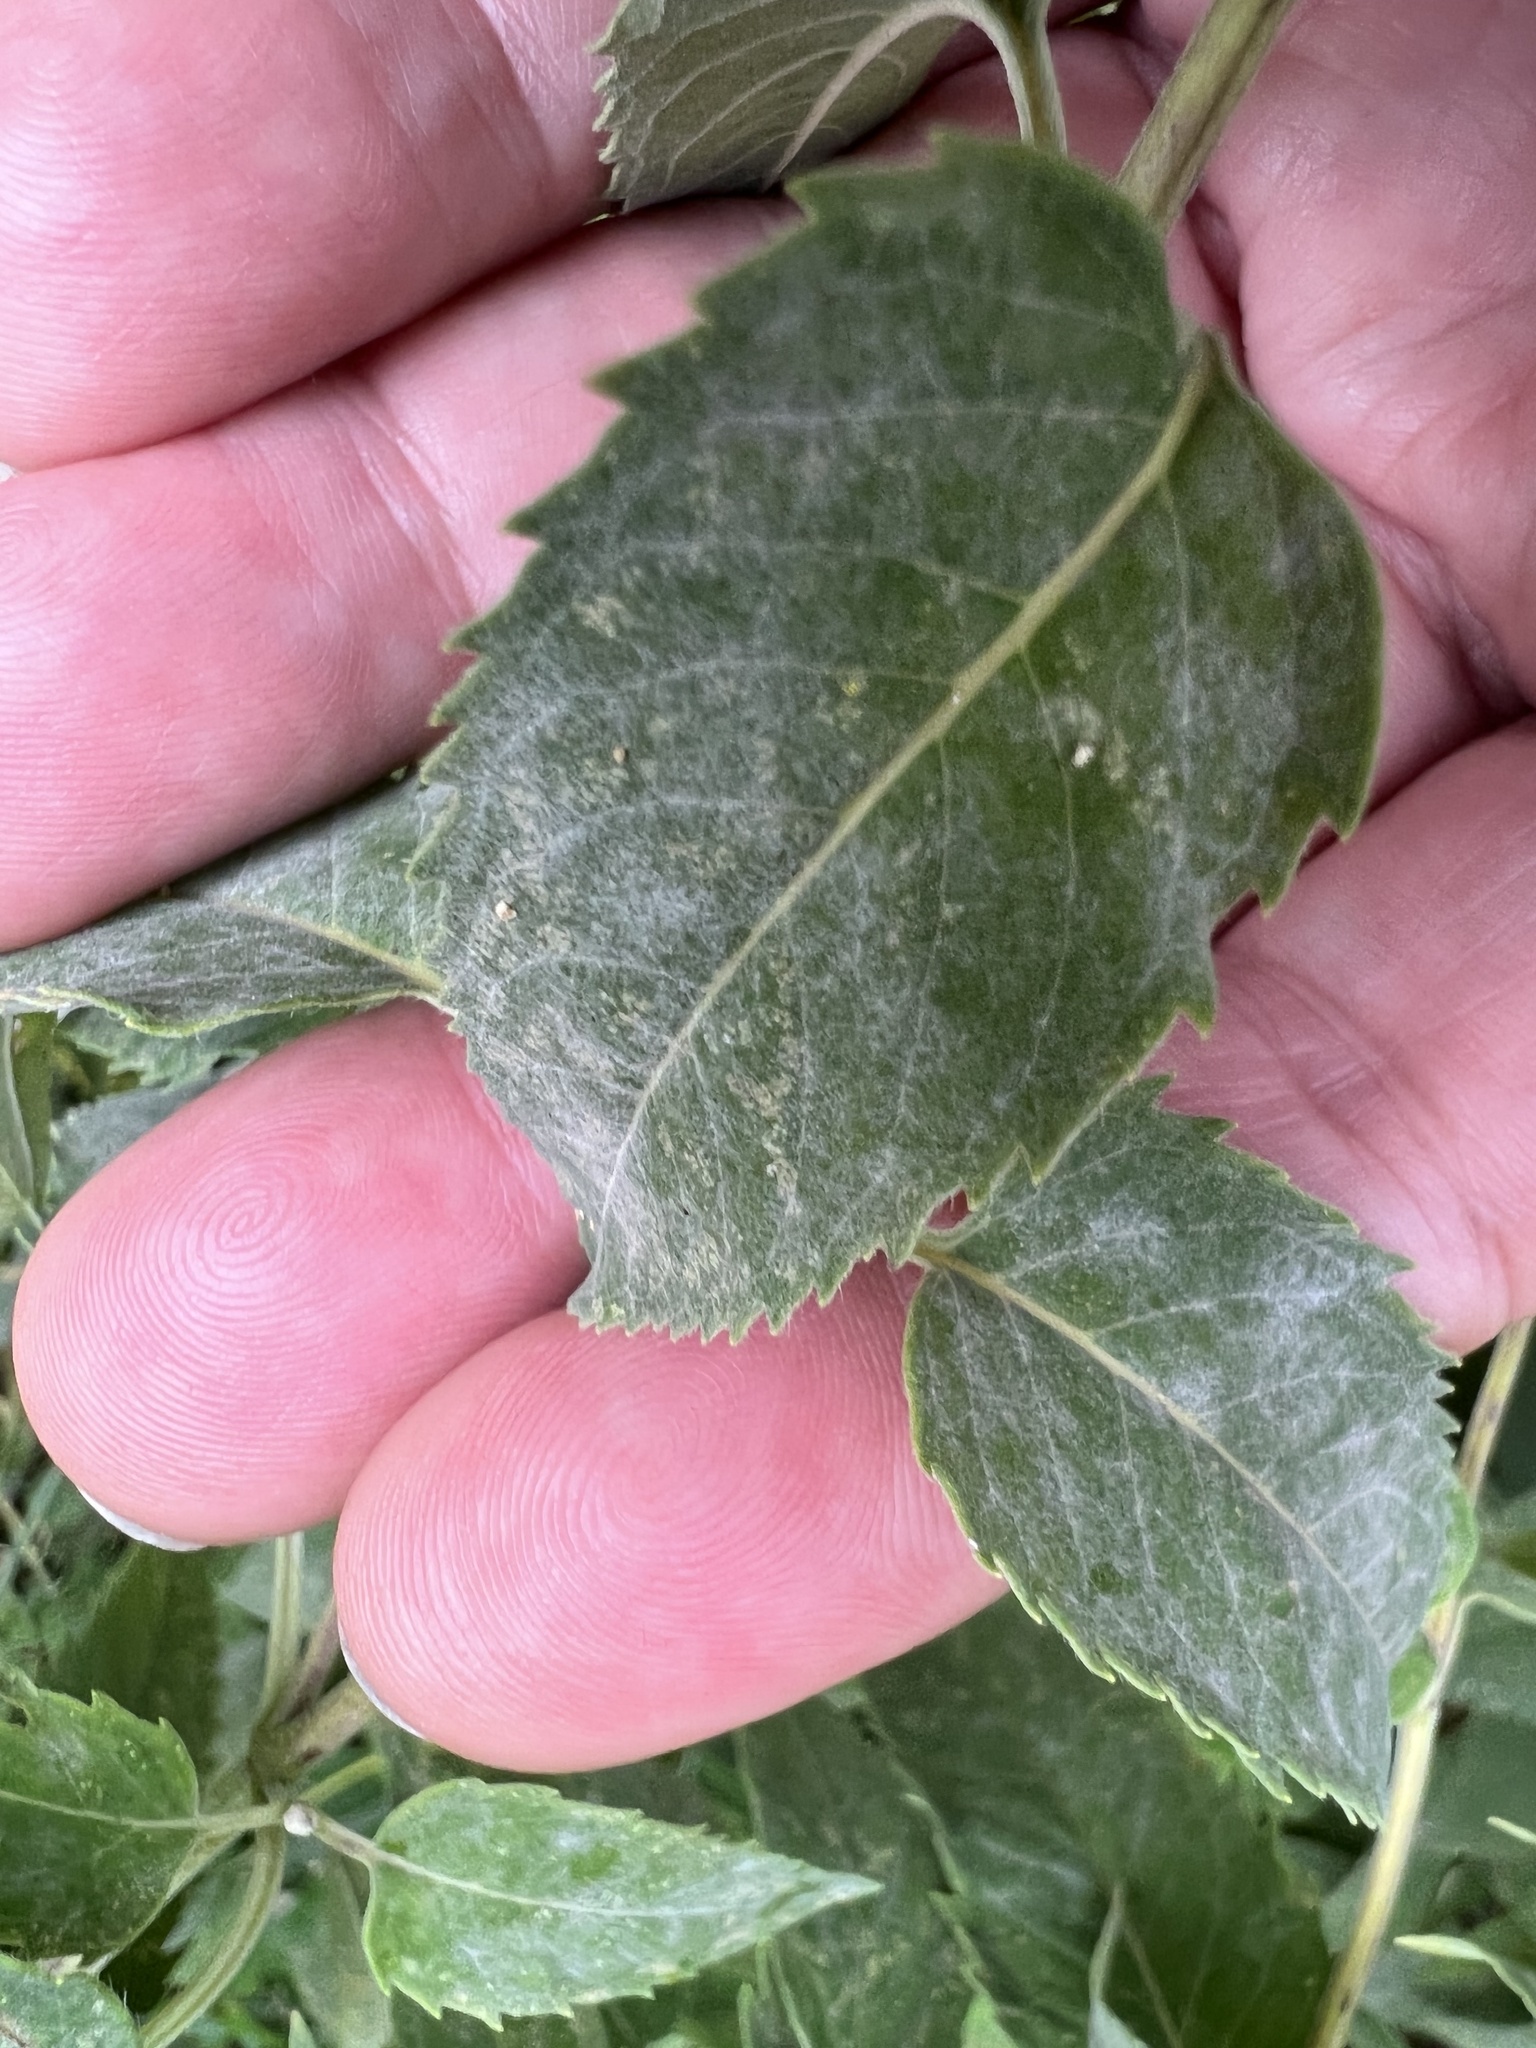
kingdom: Fungi
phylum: Ascomycota
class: Leotiomycetes
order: Helotiales
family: Erysiphaceae
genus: Golovinomyces
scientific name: Golovinomyces monardae
